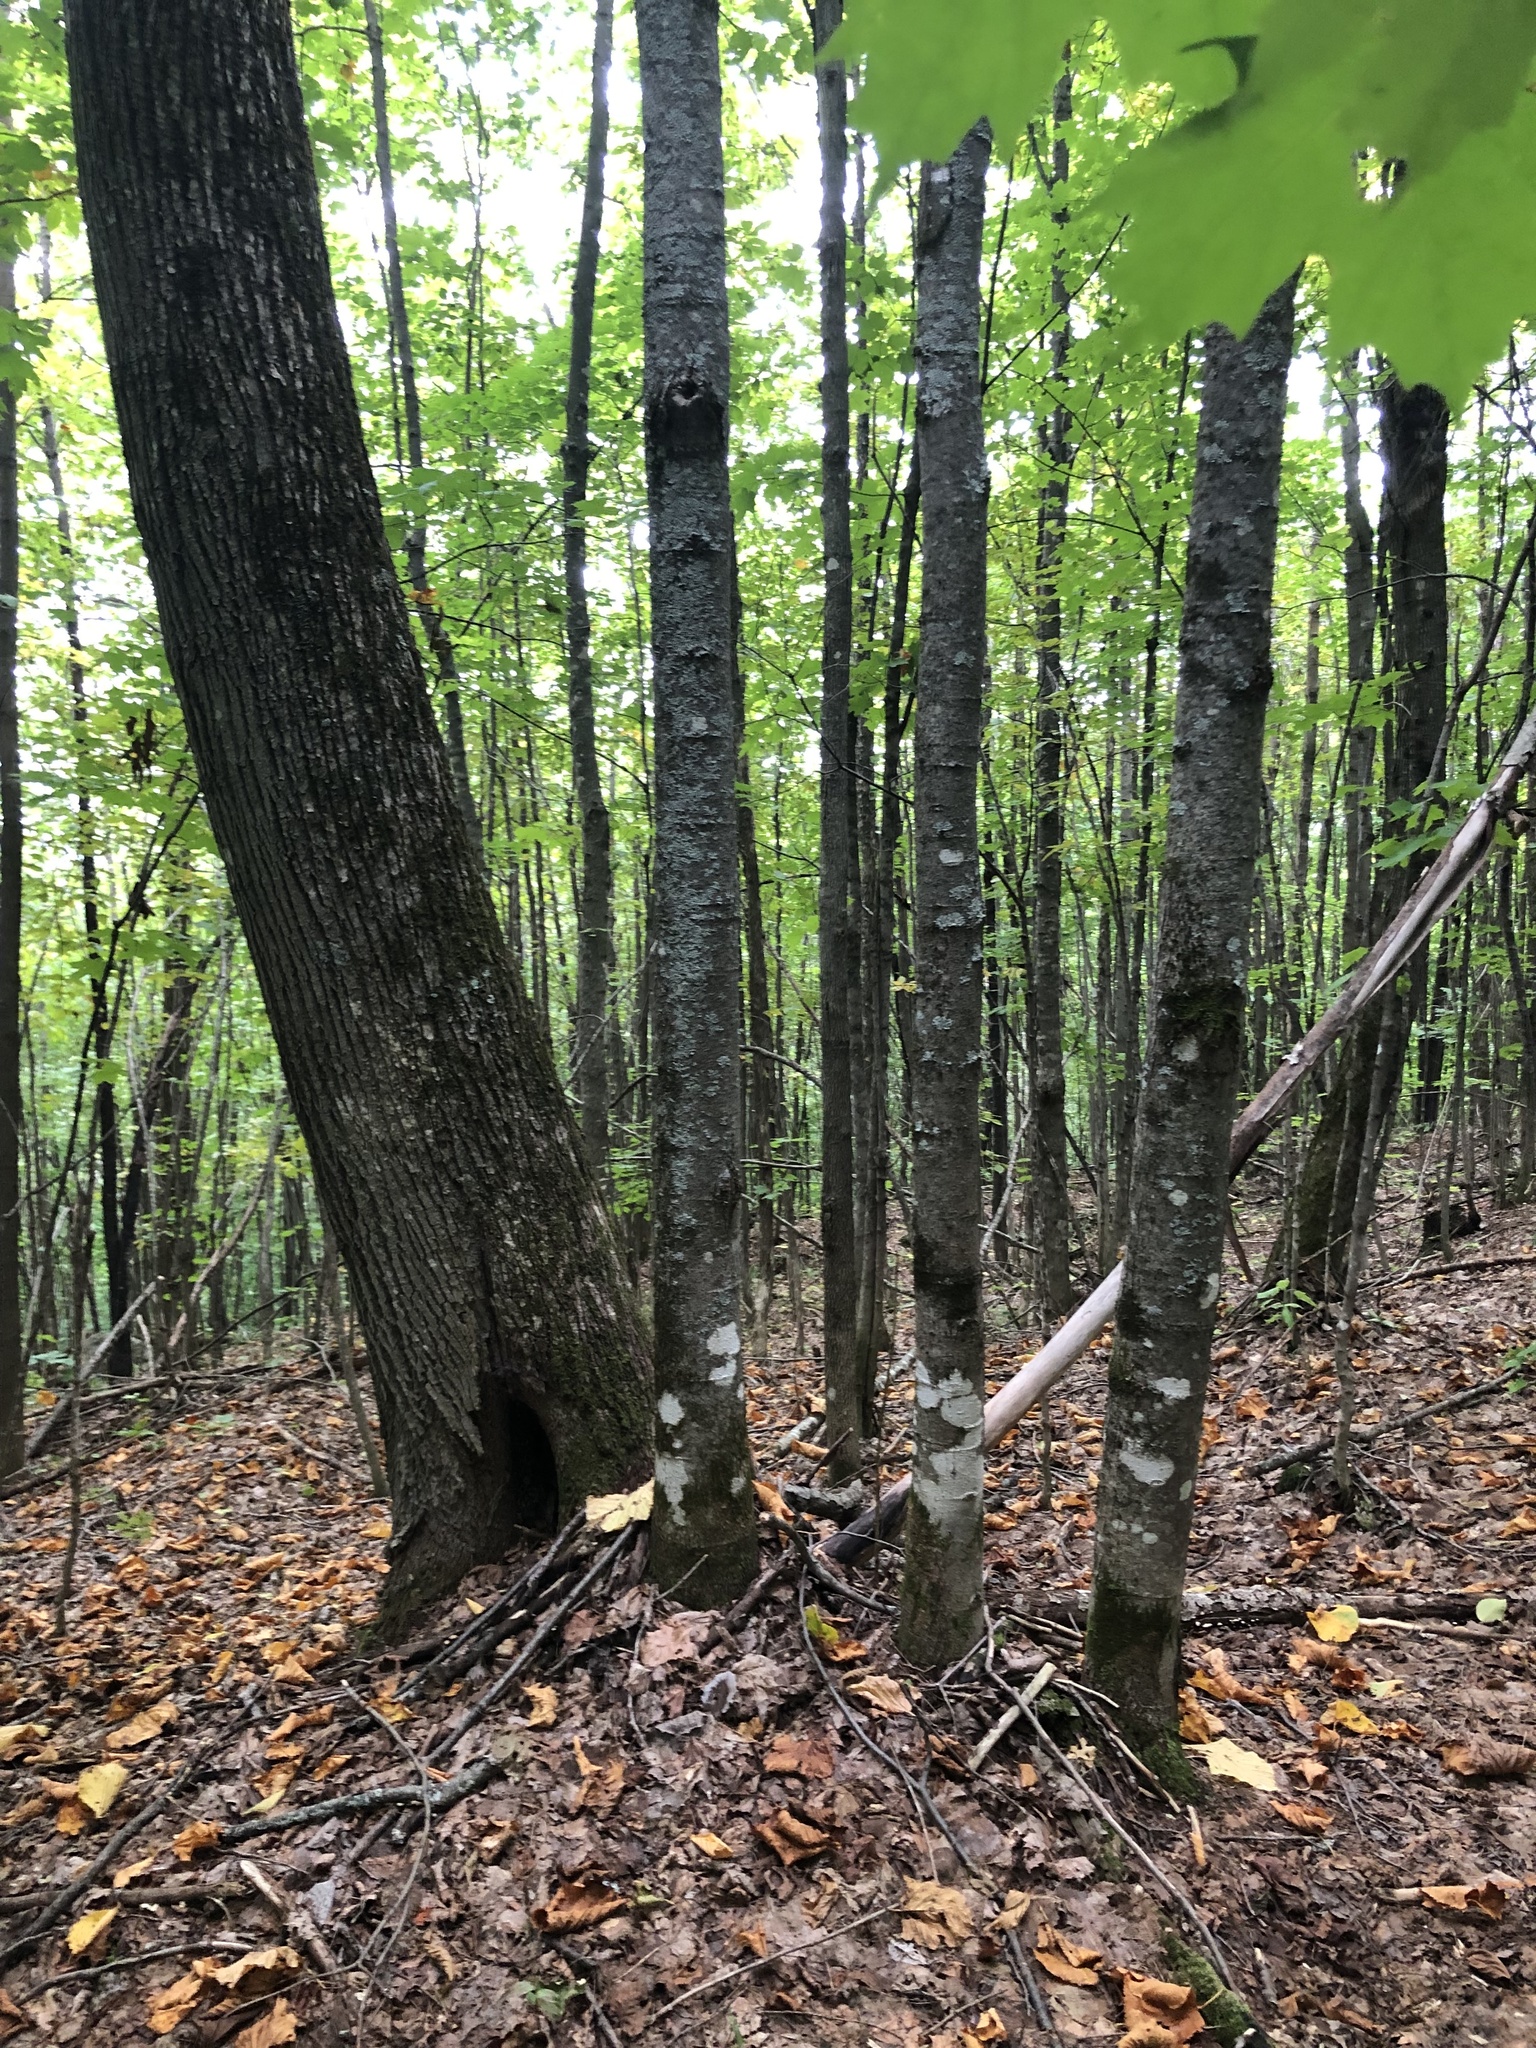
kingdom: Plantae
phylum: Tracheophyta
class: Magnoliopsida
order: Malvales
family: Malvaceae
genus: Tilia
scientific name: Tilia americana
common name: Basswood
